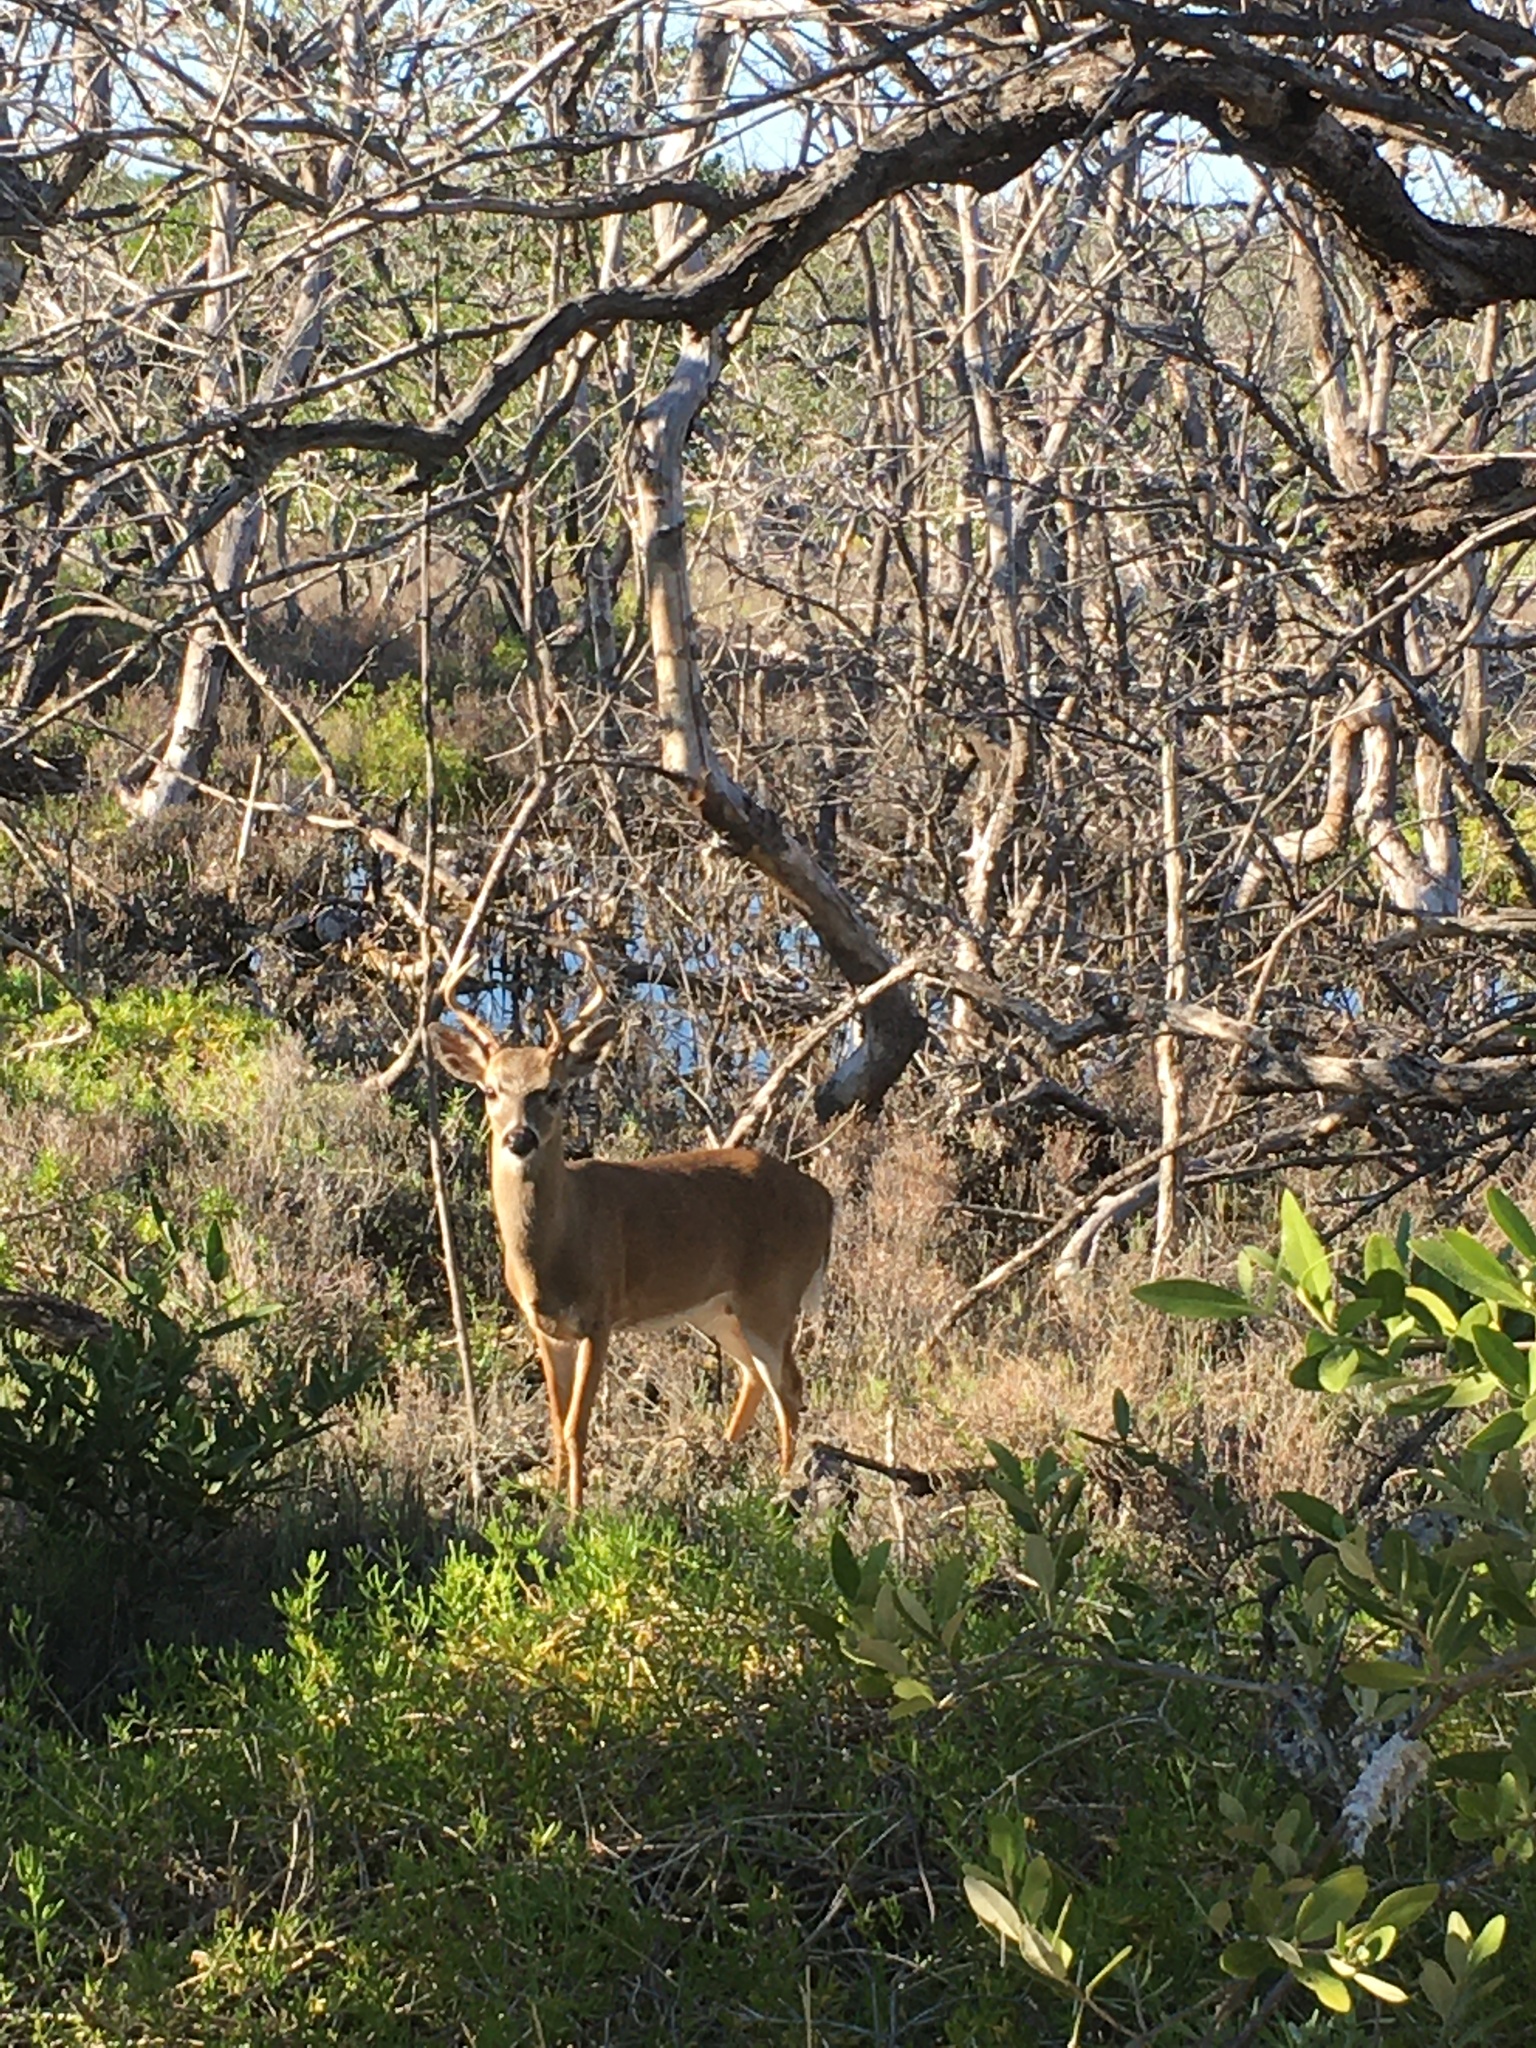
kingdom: Animalia
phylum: Chordata
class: Mammalia
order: Artiodactyla
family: Cervidae
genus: Odocoileus
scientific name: Odocoileus virginianus
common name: White-tailed deer
